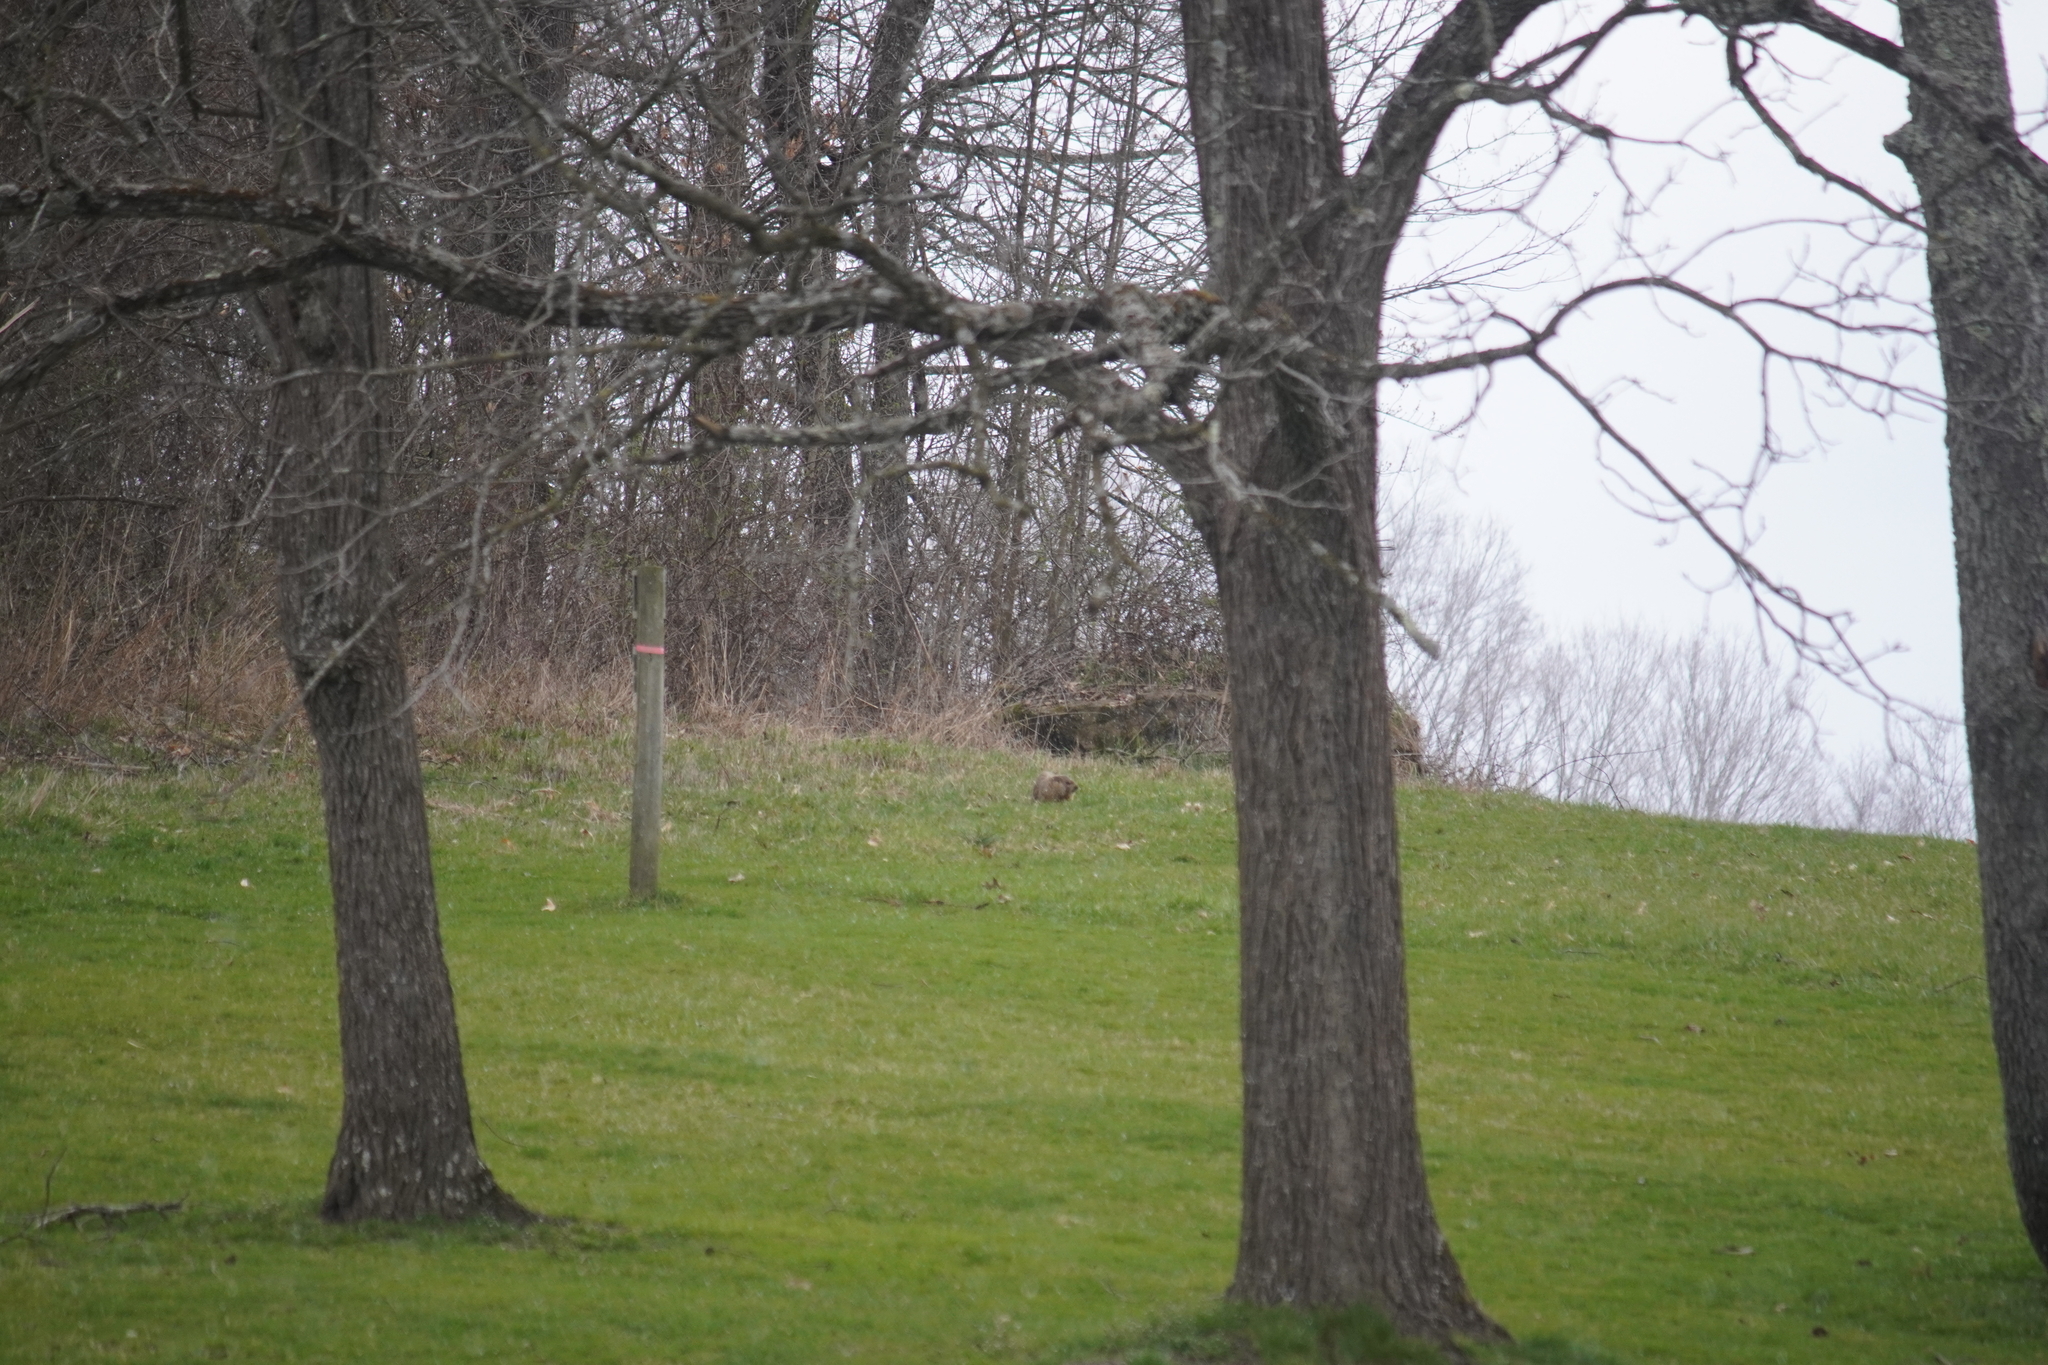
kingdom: Animalia
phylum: Chordata
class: Mammalia
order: Rodentia
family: Sciuridae
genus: Marmota
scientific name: Marmota monax
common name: Groundhog
